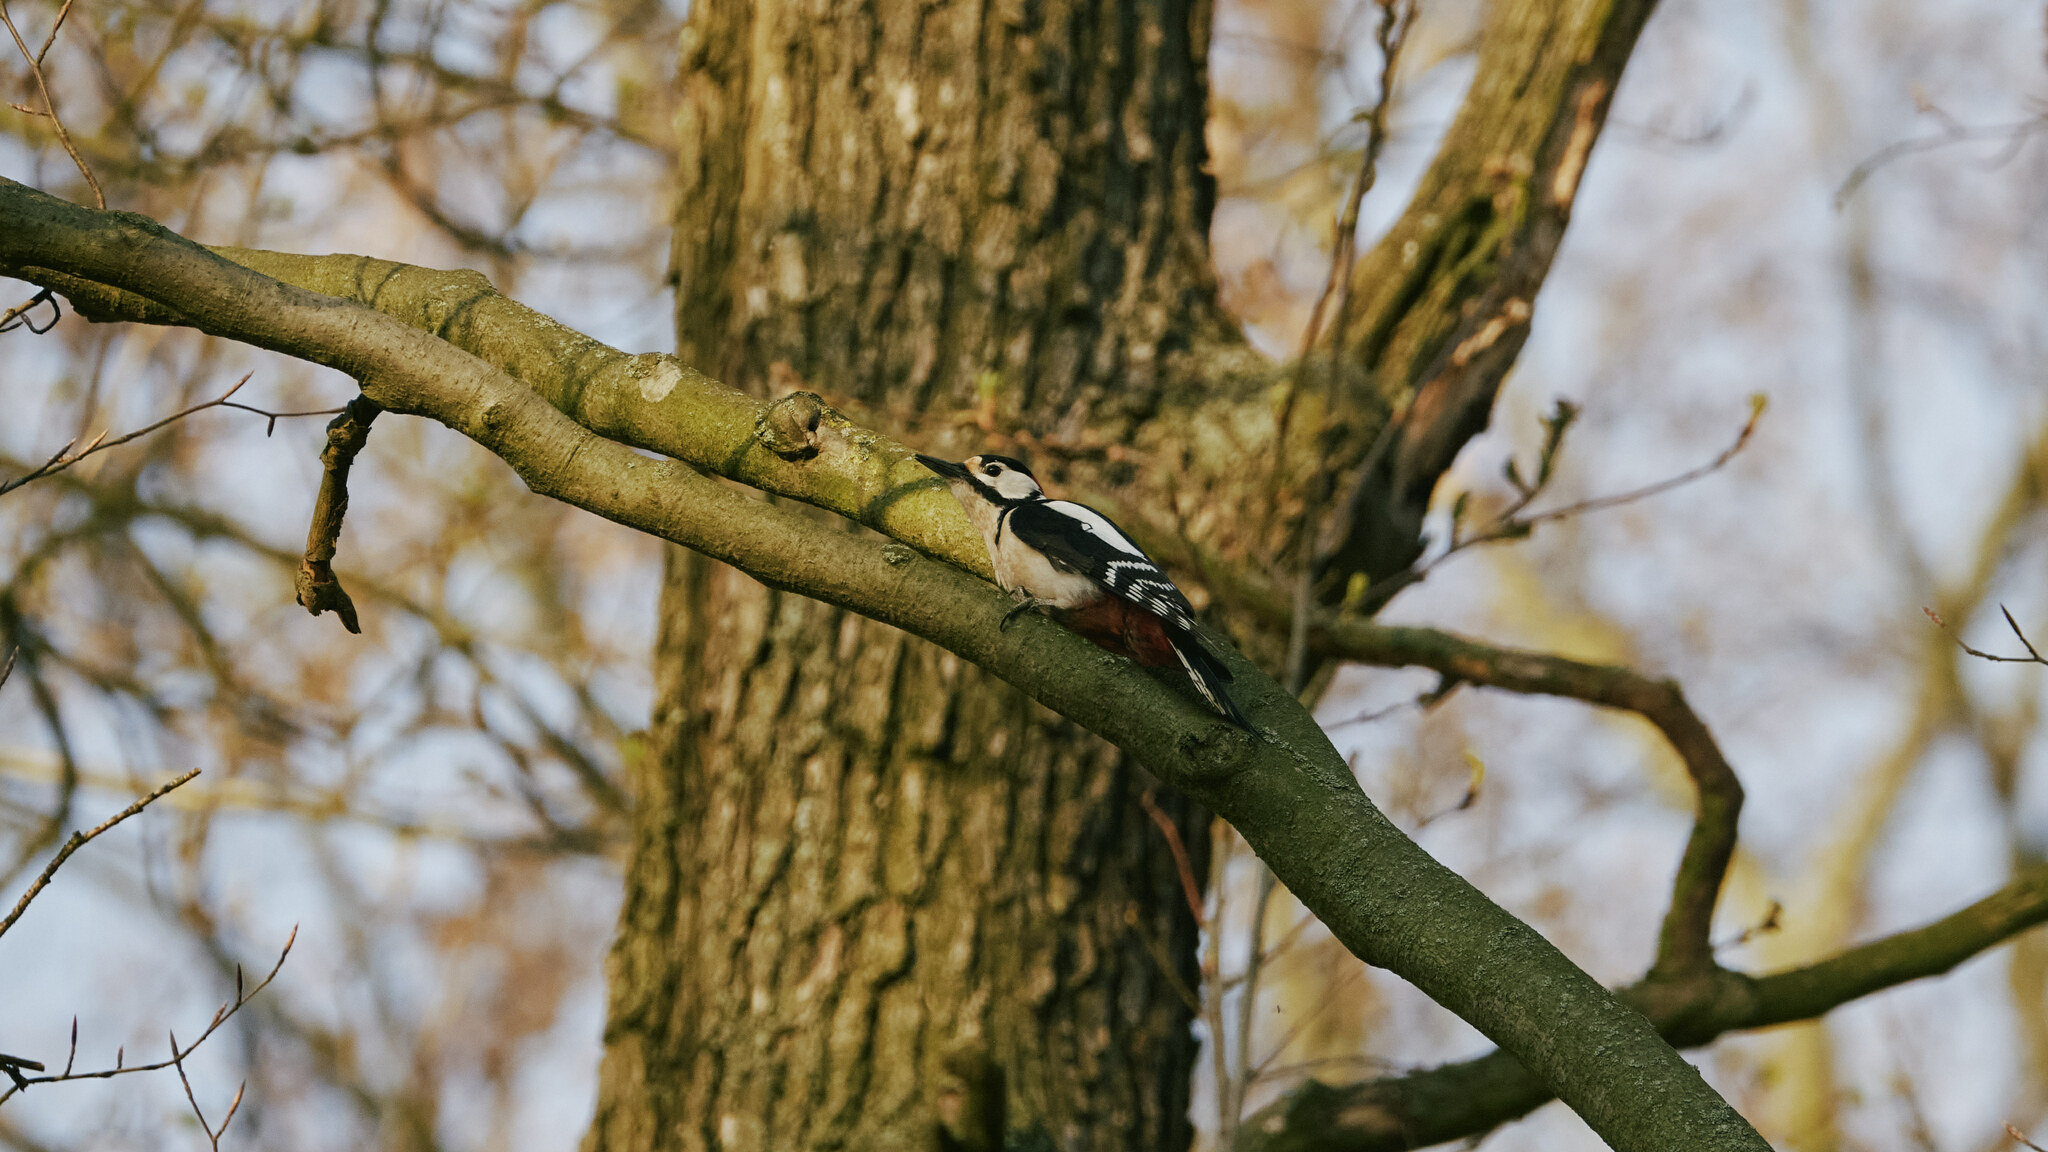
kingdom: Animalia
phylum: Chordata
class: Aves
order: Piciformes
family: Picidae
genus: Dendrocopos
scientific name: Dendrocopos major
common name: Great spotted woodpecker
